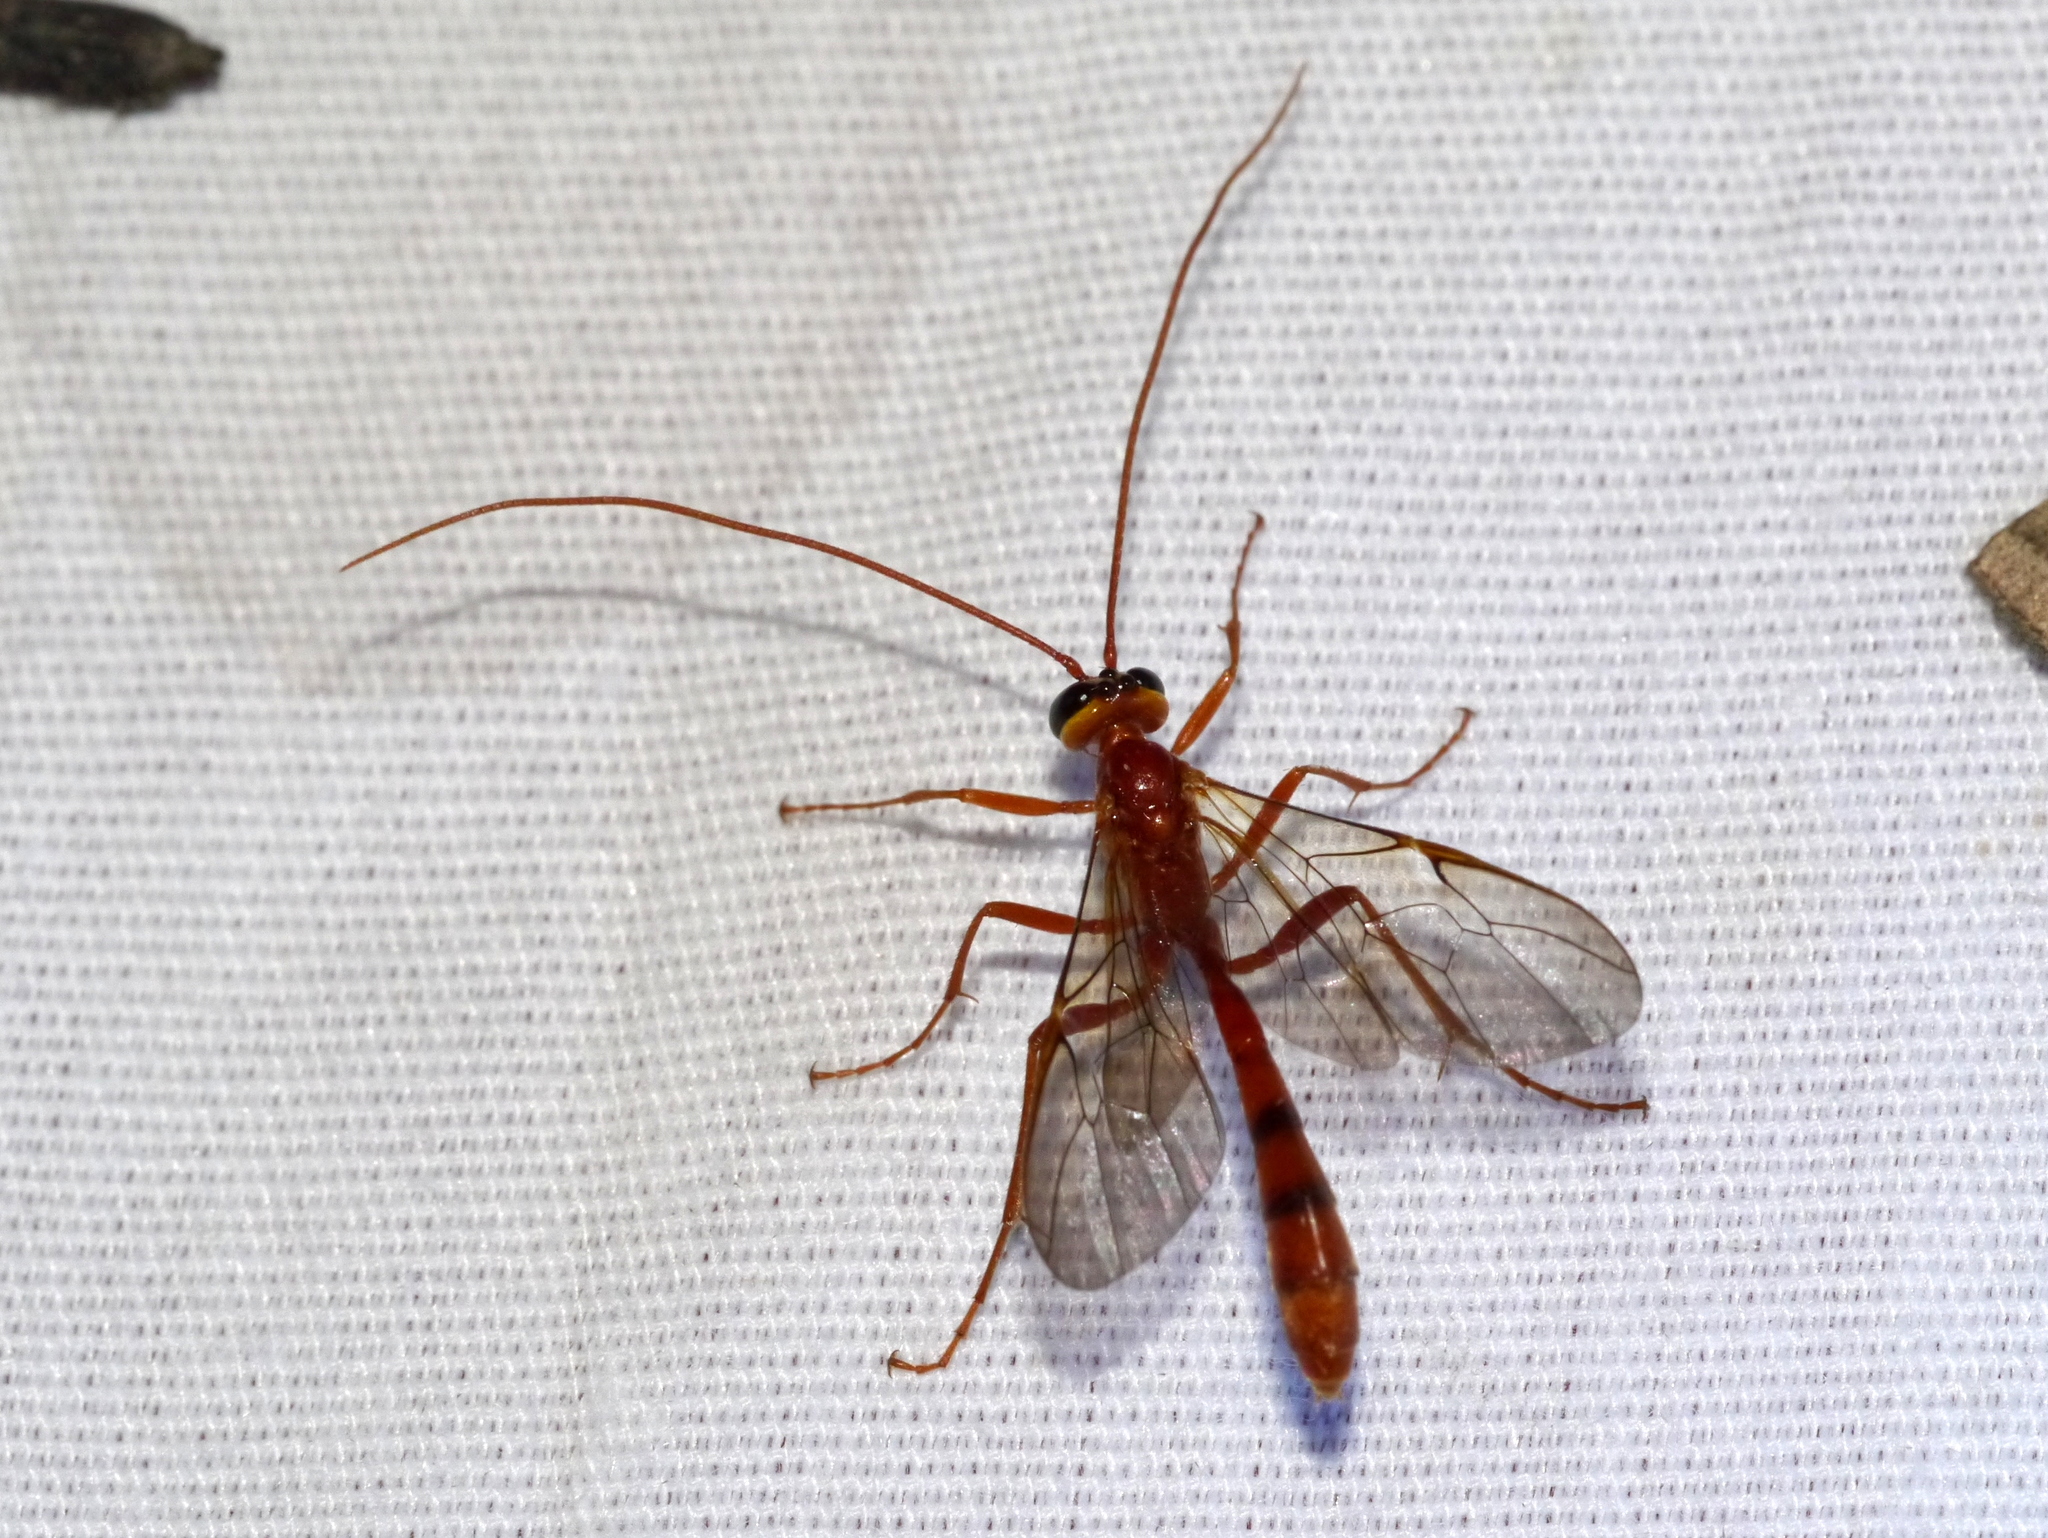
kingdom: Animalia
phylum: Arthropoda
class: Insecta
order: Hymenoptera
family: Ichneumonidae
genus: Eremotylus
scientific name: Eremotylus
